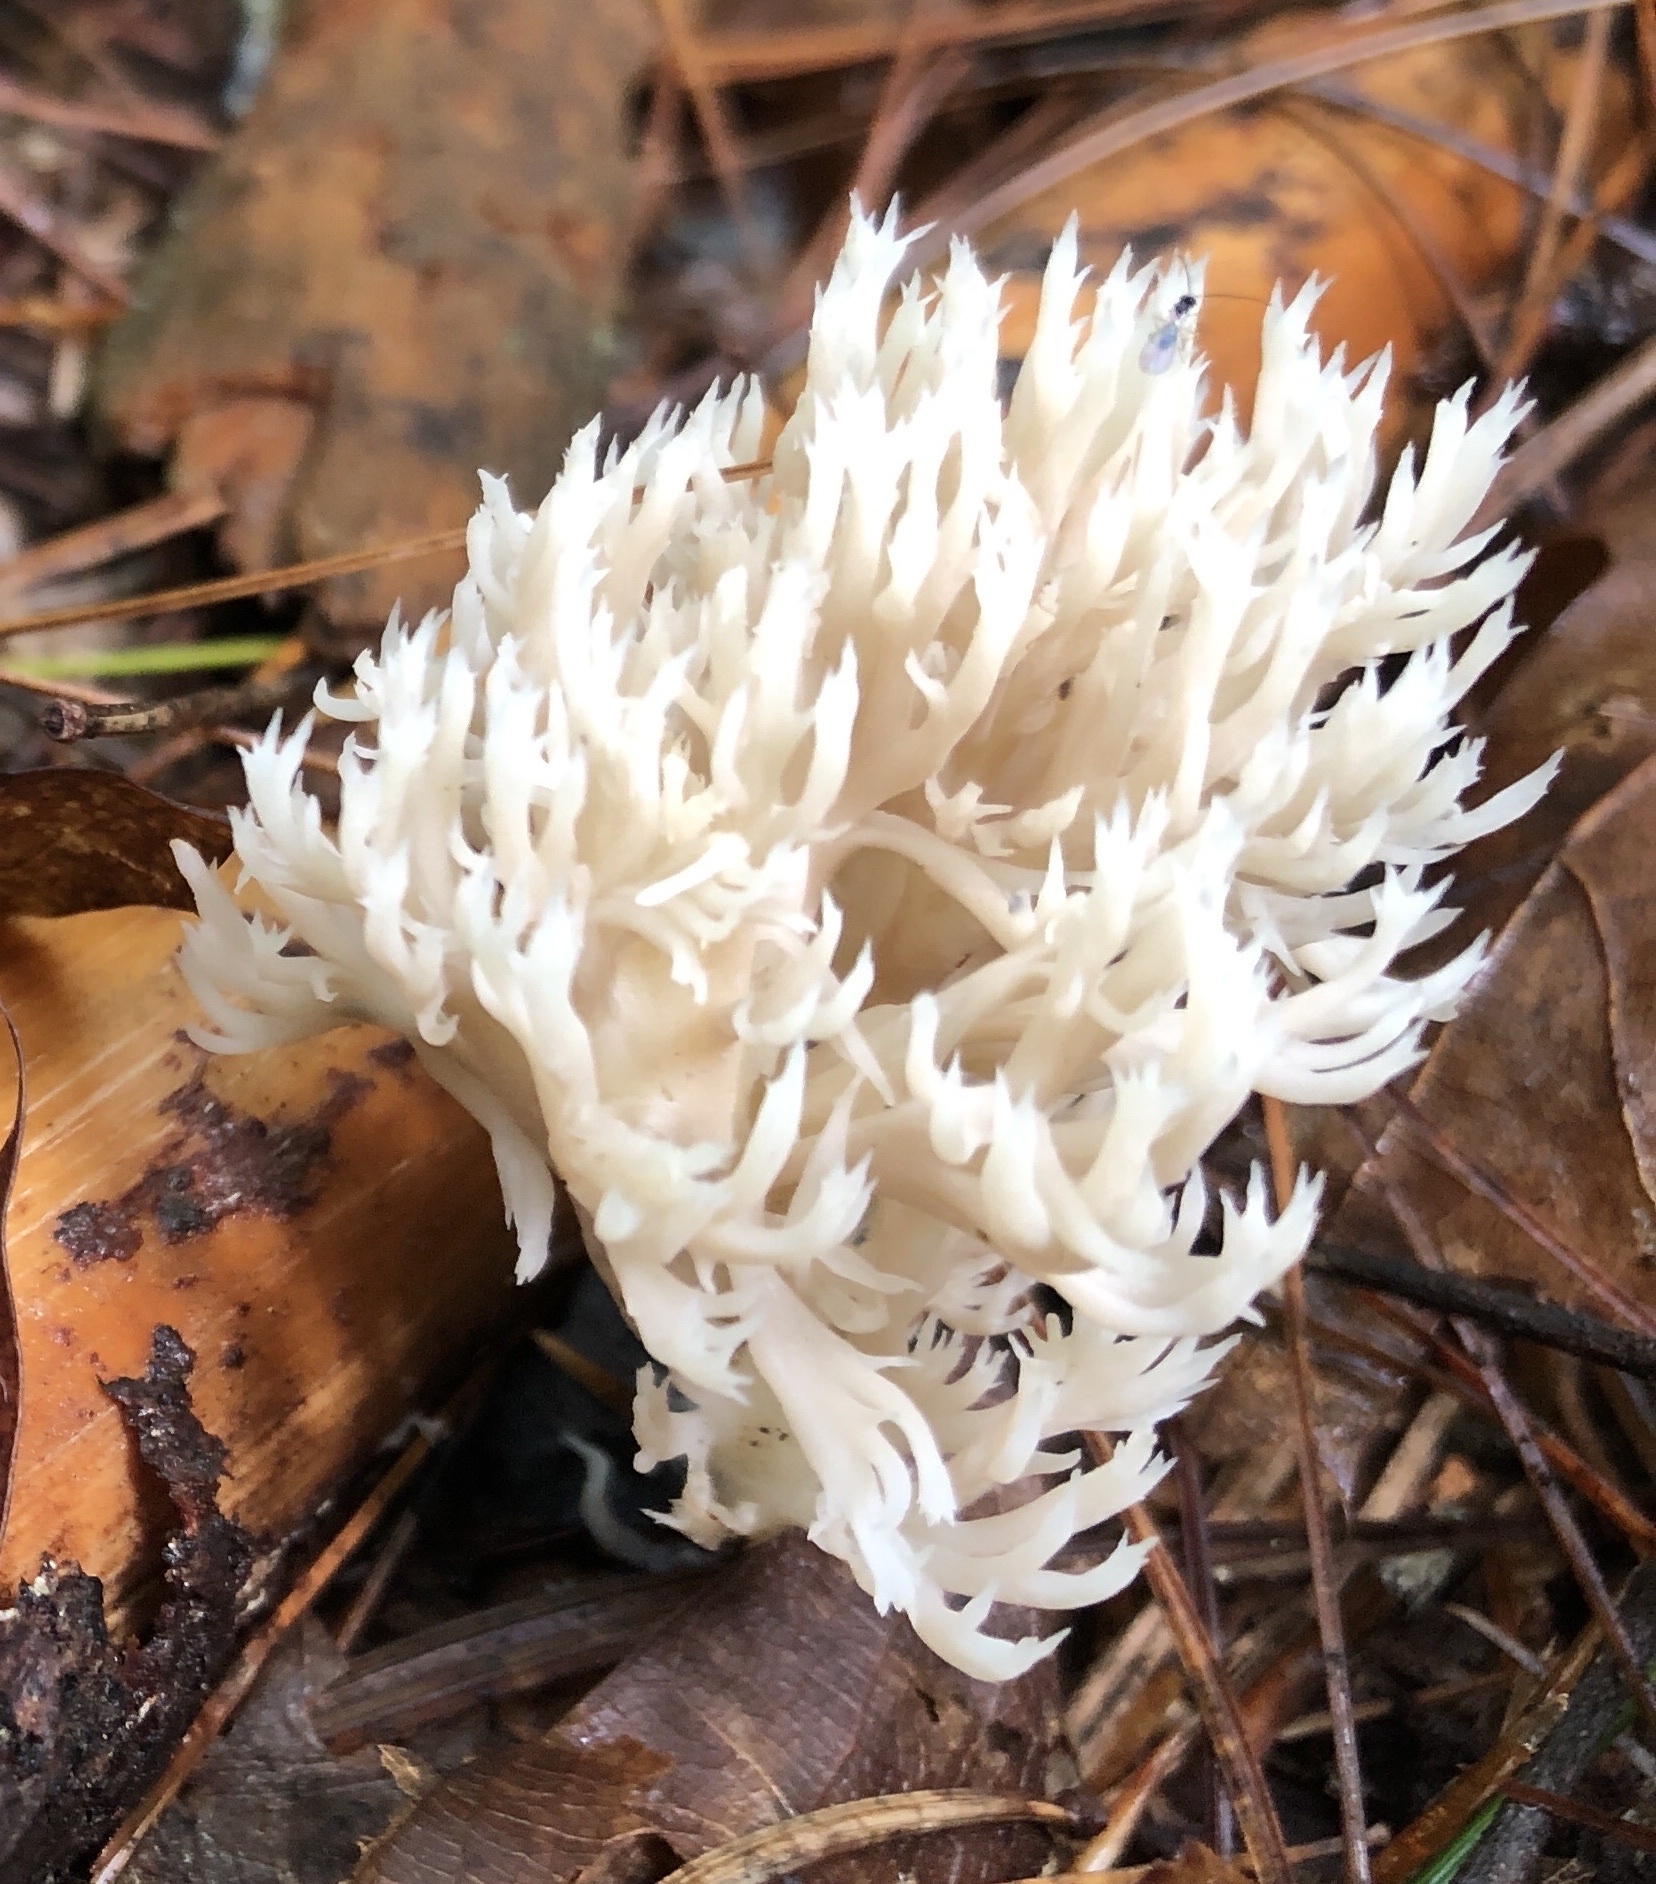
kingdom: Fungi
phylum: Basidiomycota
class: Agaricomycetes
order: Cantharellales
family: Hydnaceae
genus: Clavulina
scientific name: Clavulina coralloides
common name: Crested coral
